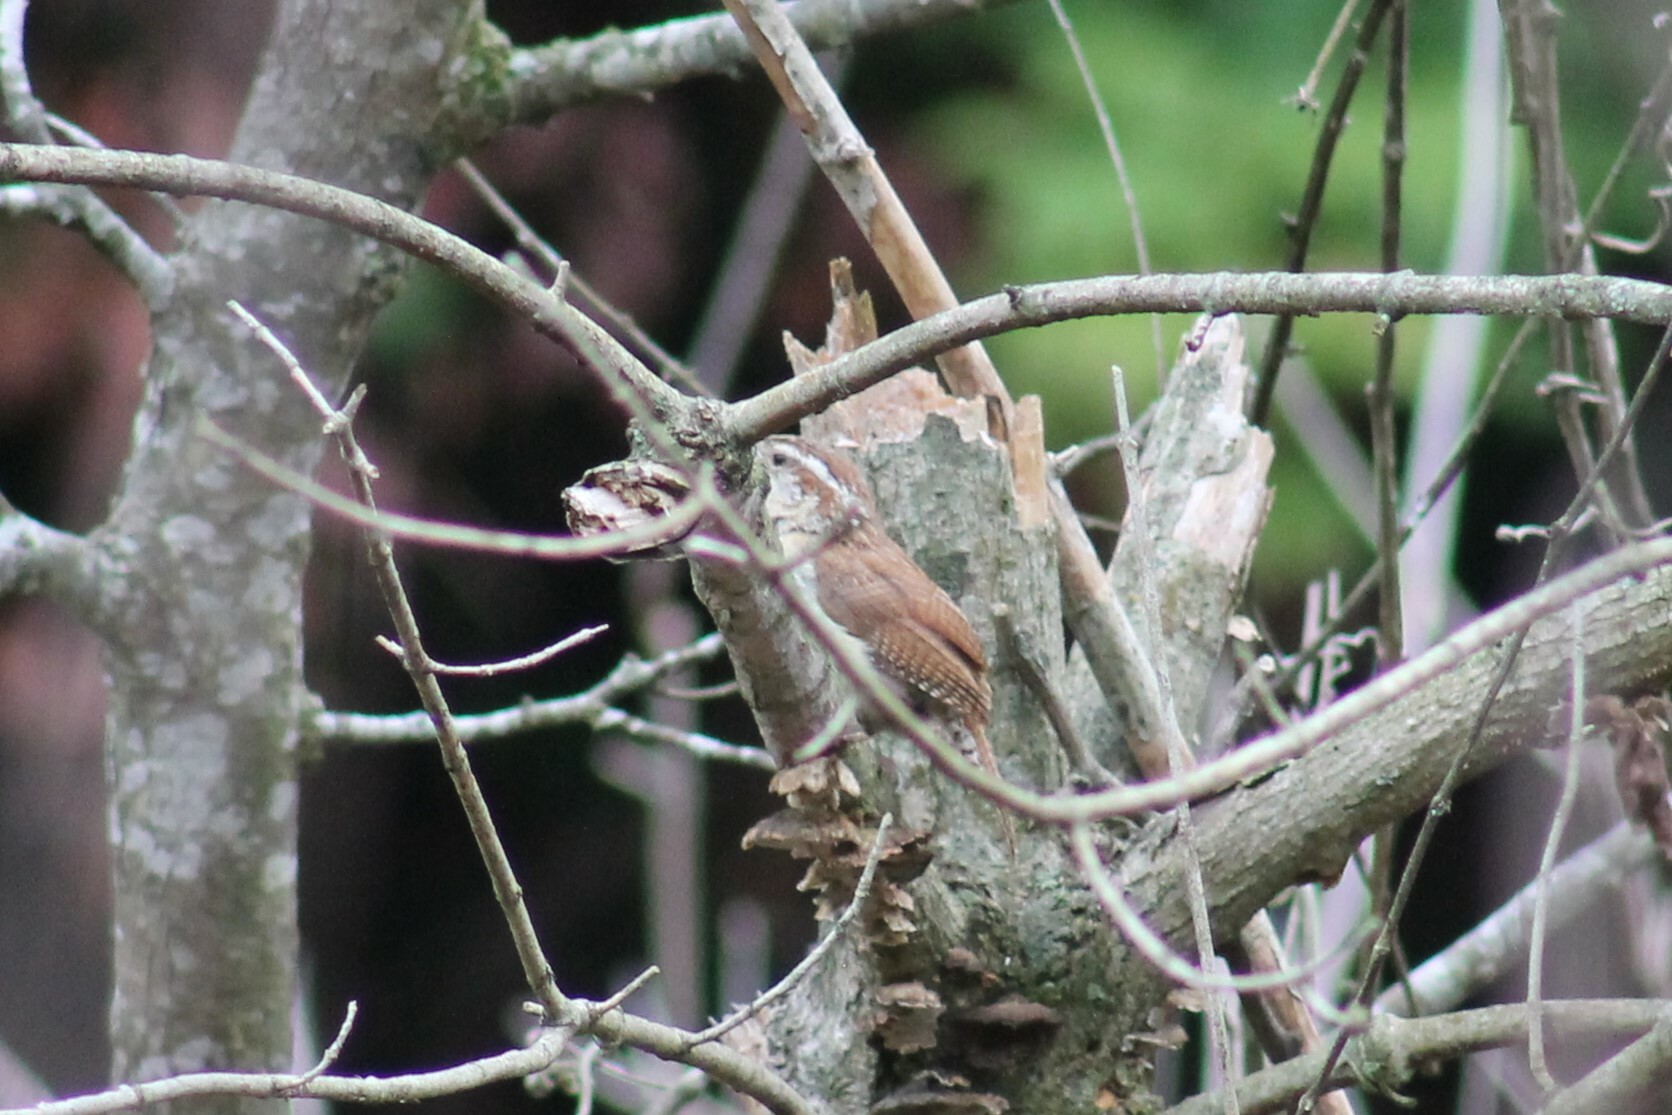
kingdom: Animalia
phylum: Chordata
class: Aves
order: Passeriformes
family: Troglodytidae
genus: Thryothorus
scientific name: Thryothorus ludovicianus
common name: Carolina wren
